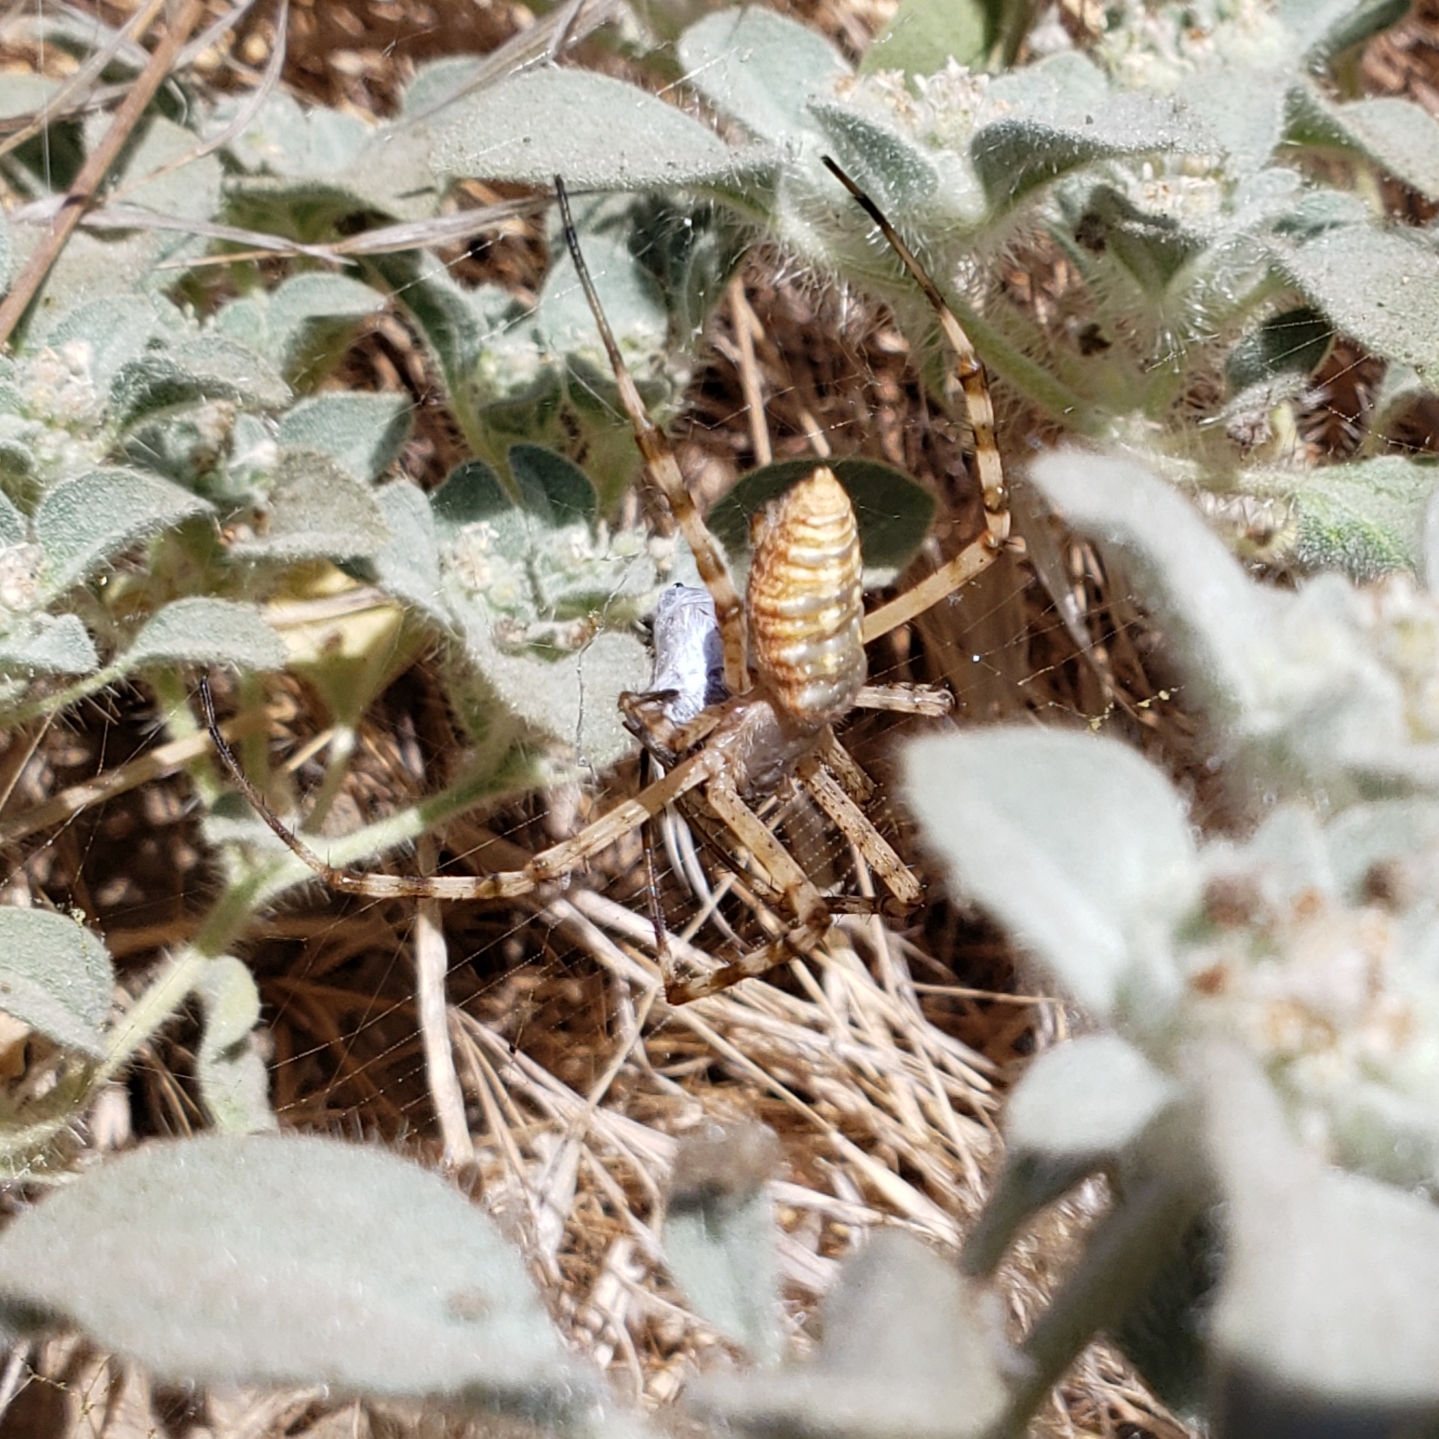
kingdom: Animalia
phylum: Arthropoda
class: Arachnida
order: Araneae
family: Araneidae
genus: Argiope
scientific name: Argiope trifasciata
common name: Banded garden spider
